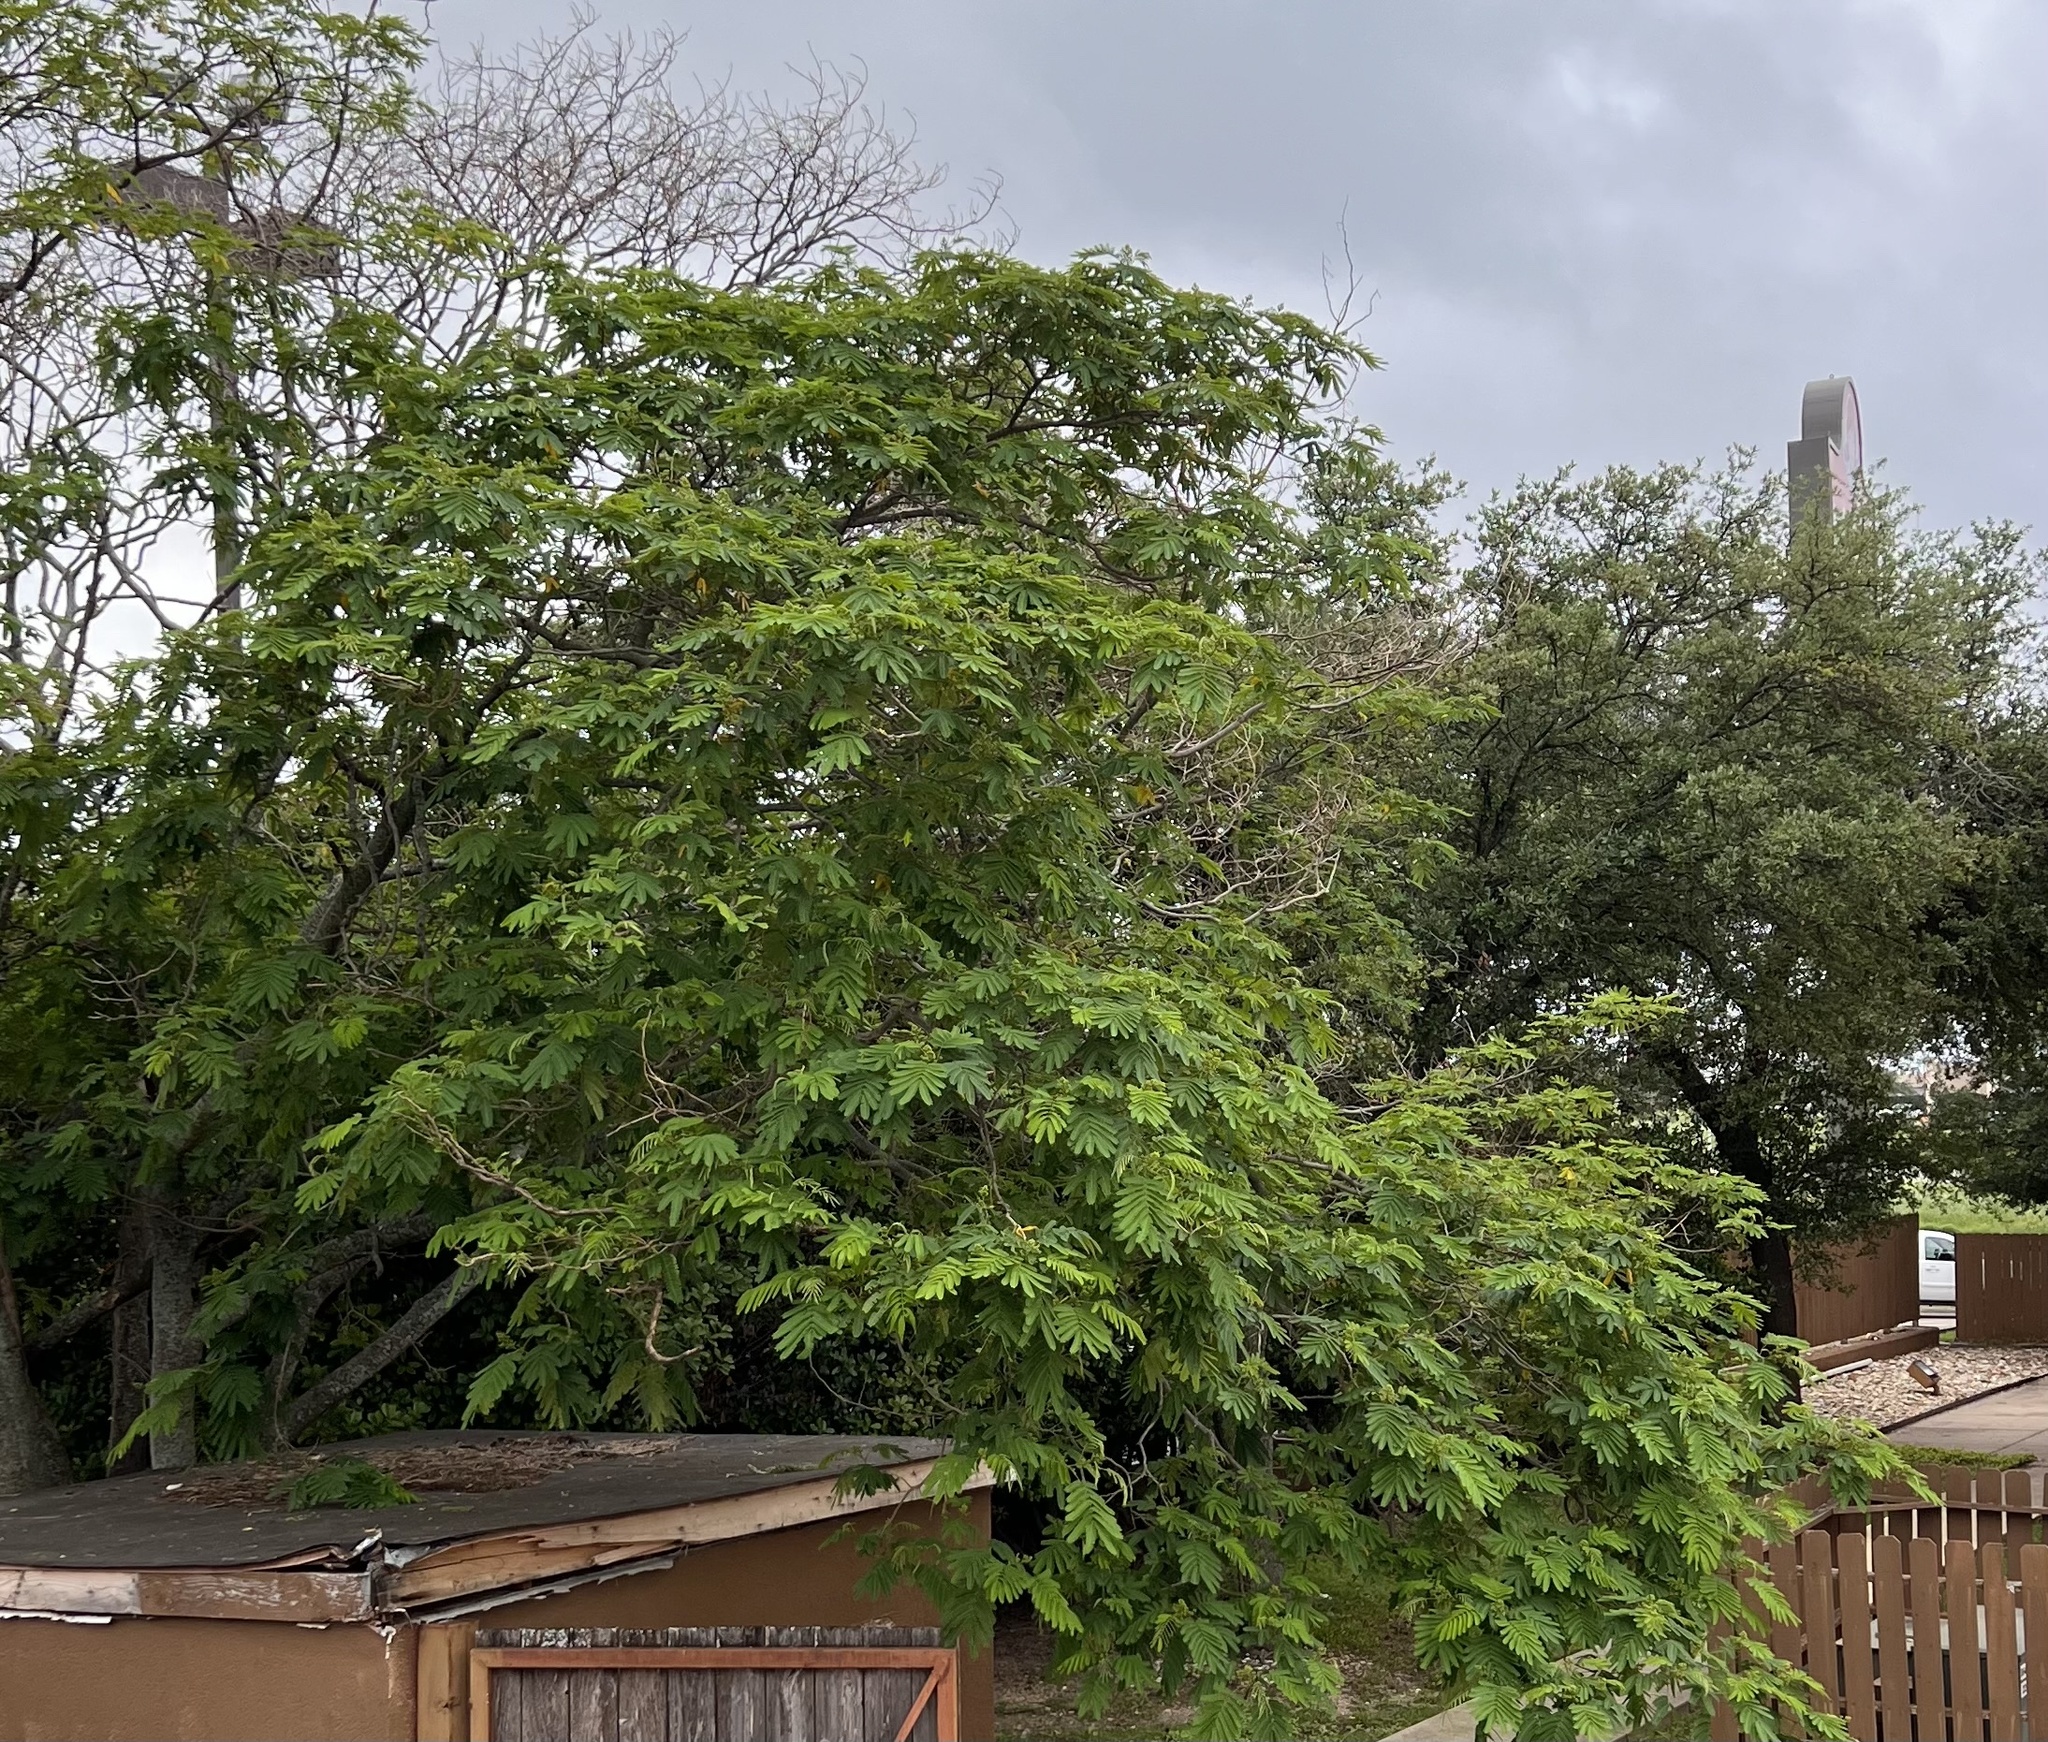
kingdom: Plantae
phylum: Tracheophyta
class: Magnoliopsida
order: Fabales
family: Fabaceae
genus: Albizia
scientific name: Albizia julibrissin
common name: Silktree
